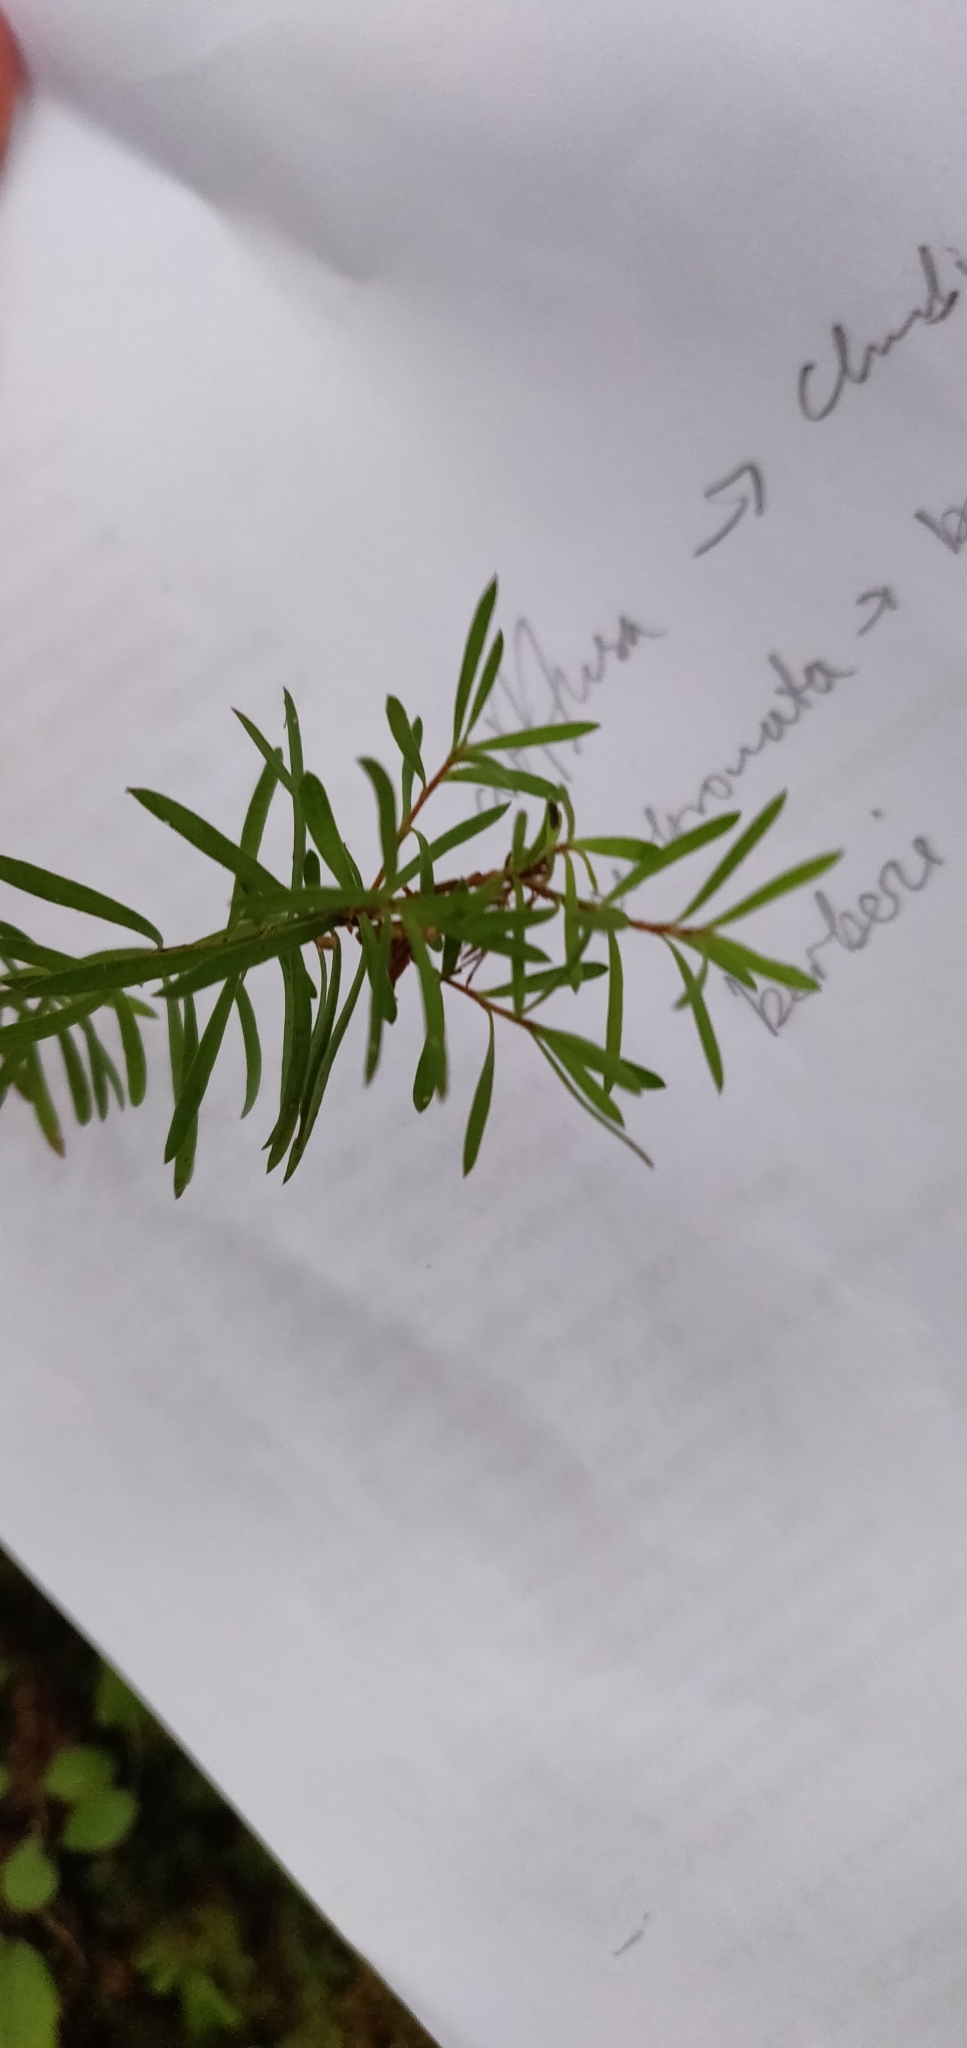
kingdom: Plantae
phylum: Tracheophyta
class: Magnoliopsida
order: Ericales
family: Ericaceae
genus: Leucopogon
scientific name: Leucopogon fasciculatus
